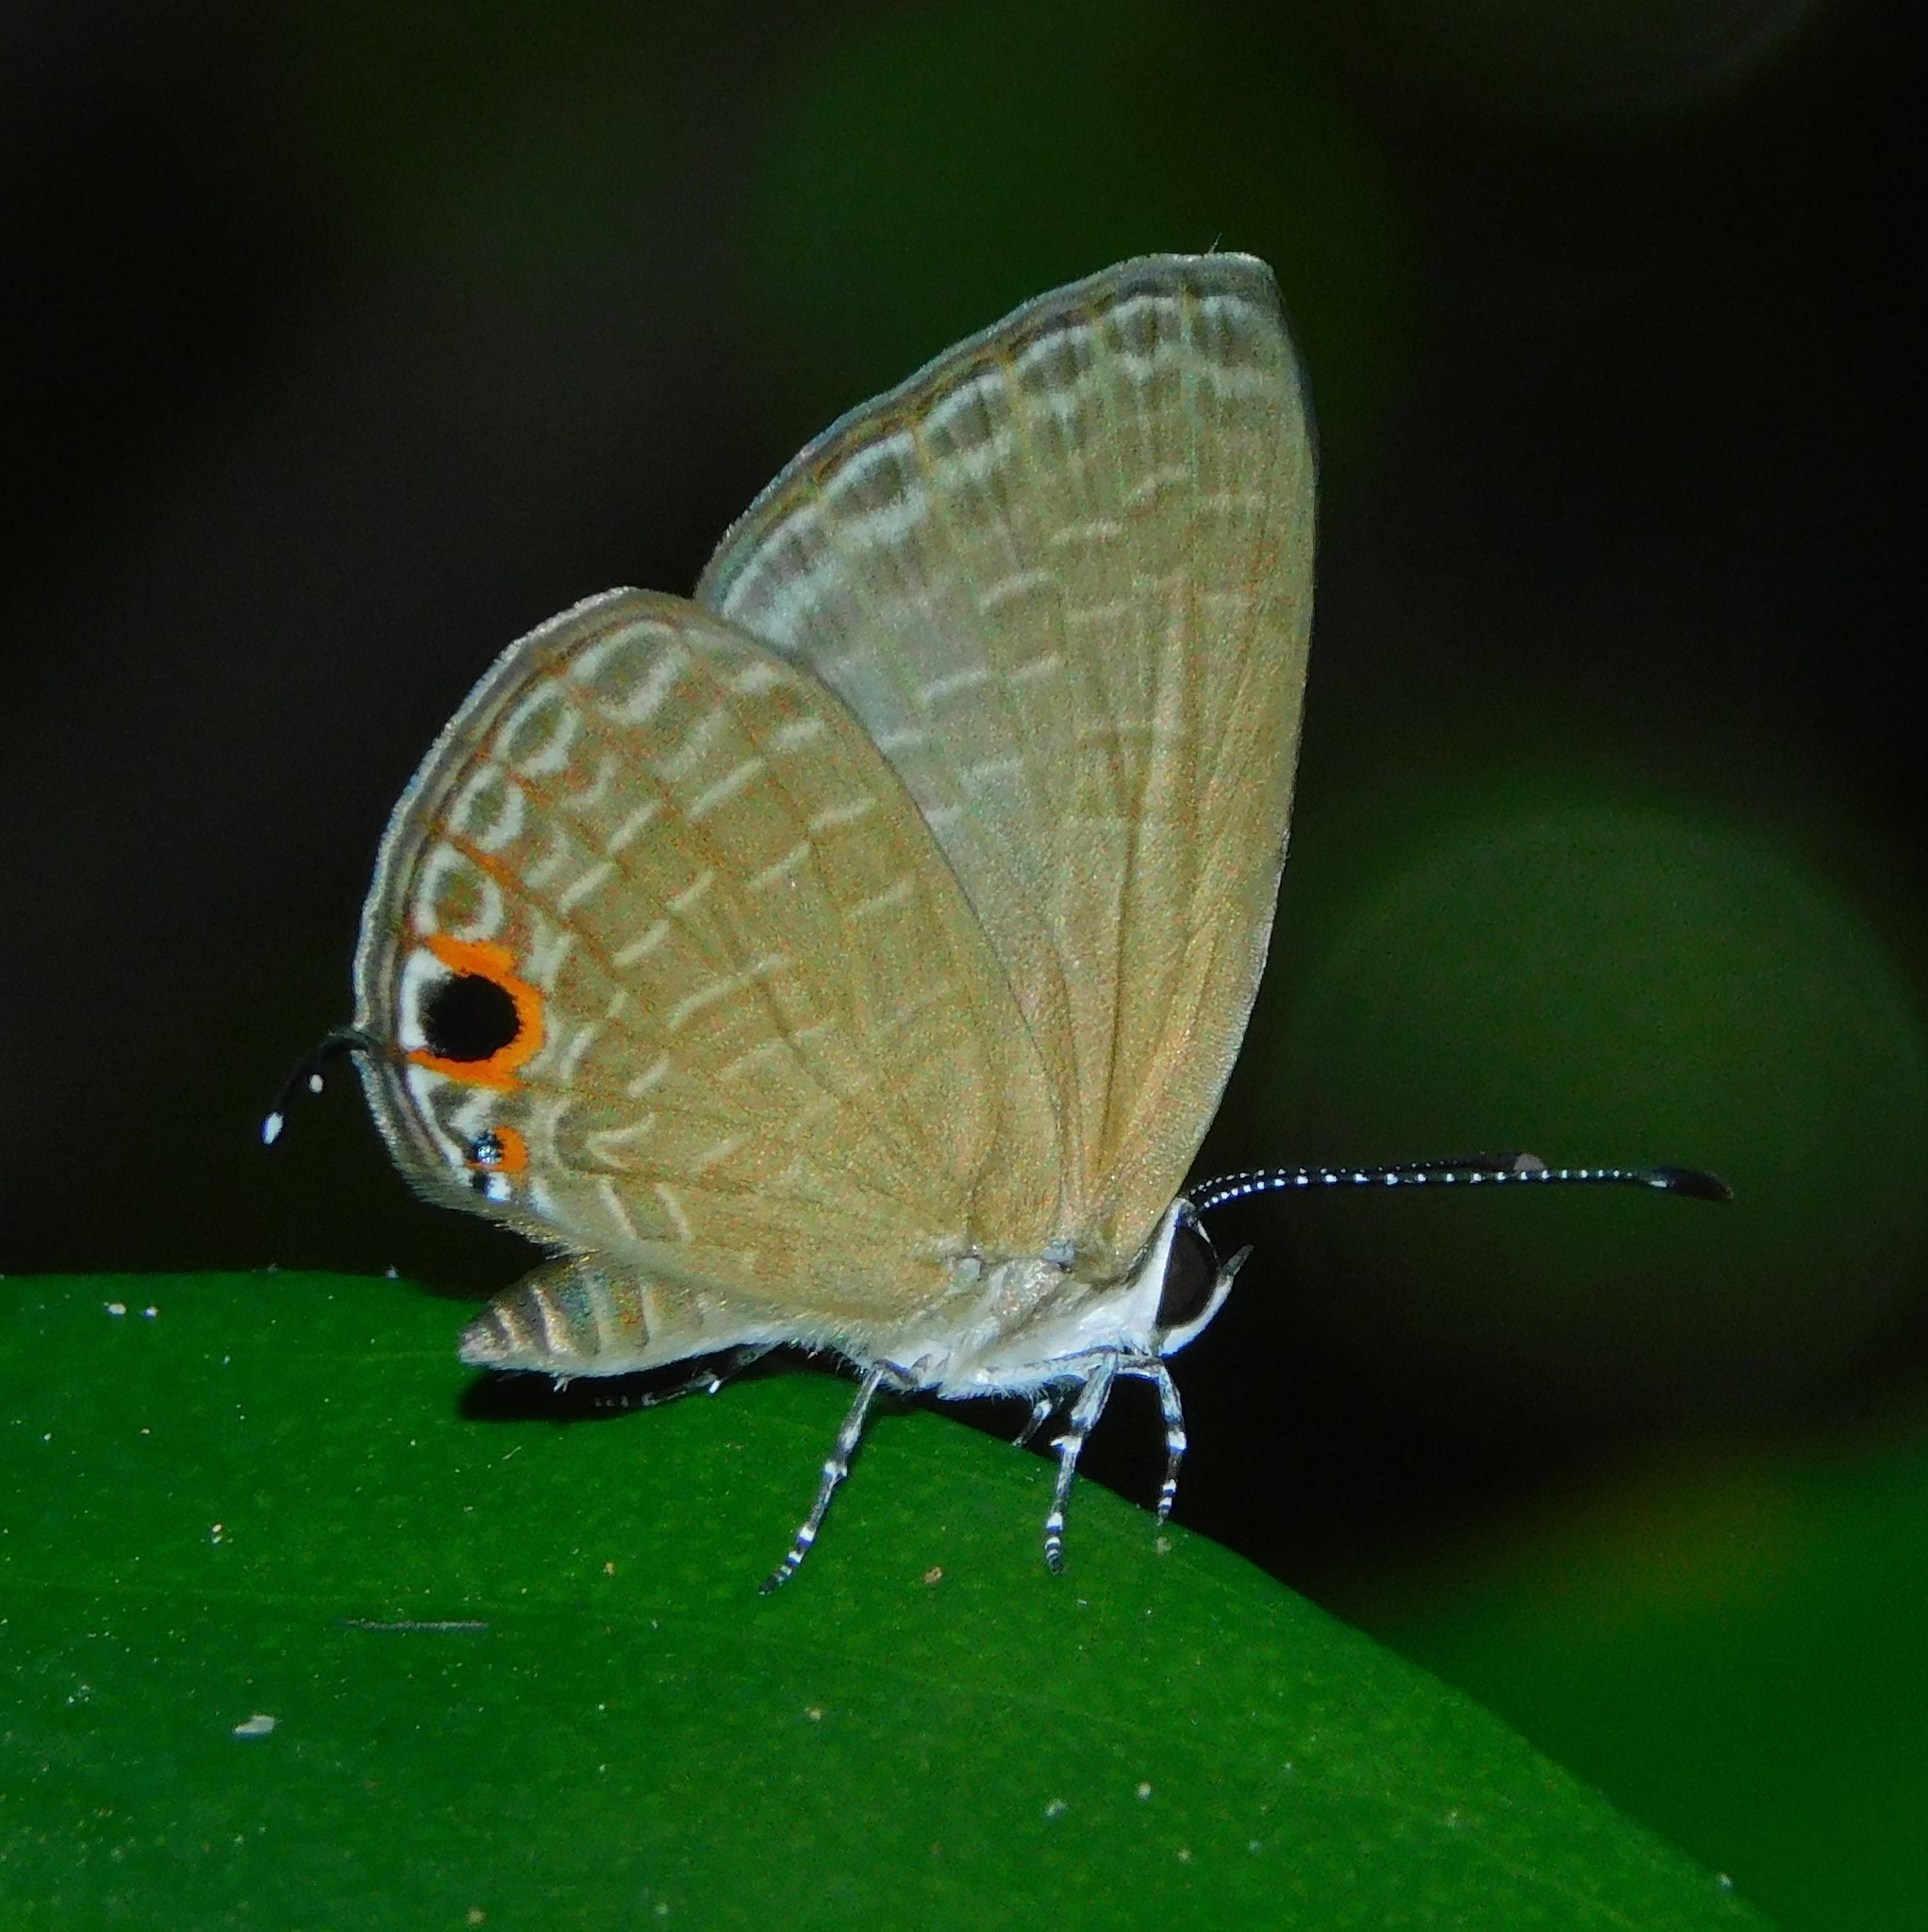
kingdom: Animalia
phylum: Arthropoda
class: Insecta
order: Lepidoptera
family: Lycaenidae
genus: Jamides
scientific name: Jamides bochus
